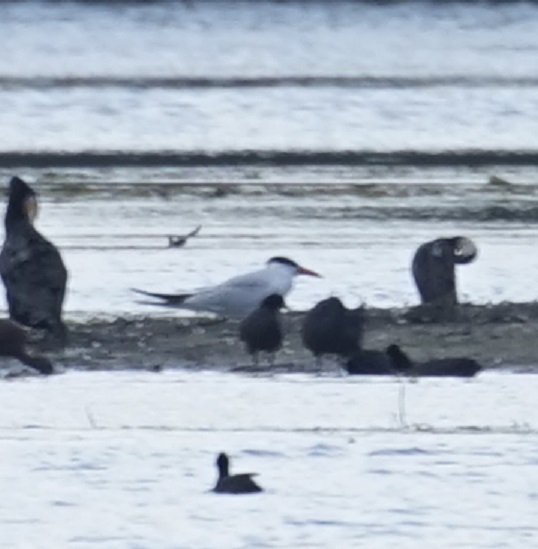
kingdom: Animalia
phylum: Chordata
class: Aves
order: Charadriiformes
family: Laridae
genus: Hydroprogne
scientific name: Hydroprogne caspia
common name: Caspian tern
